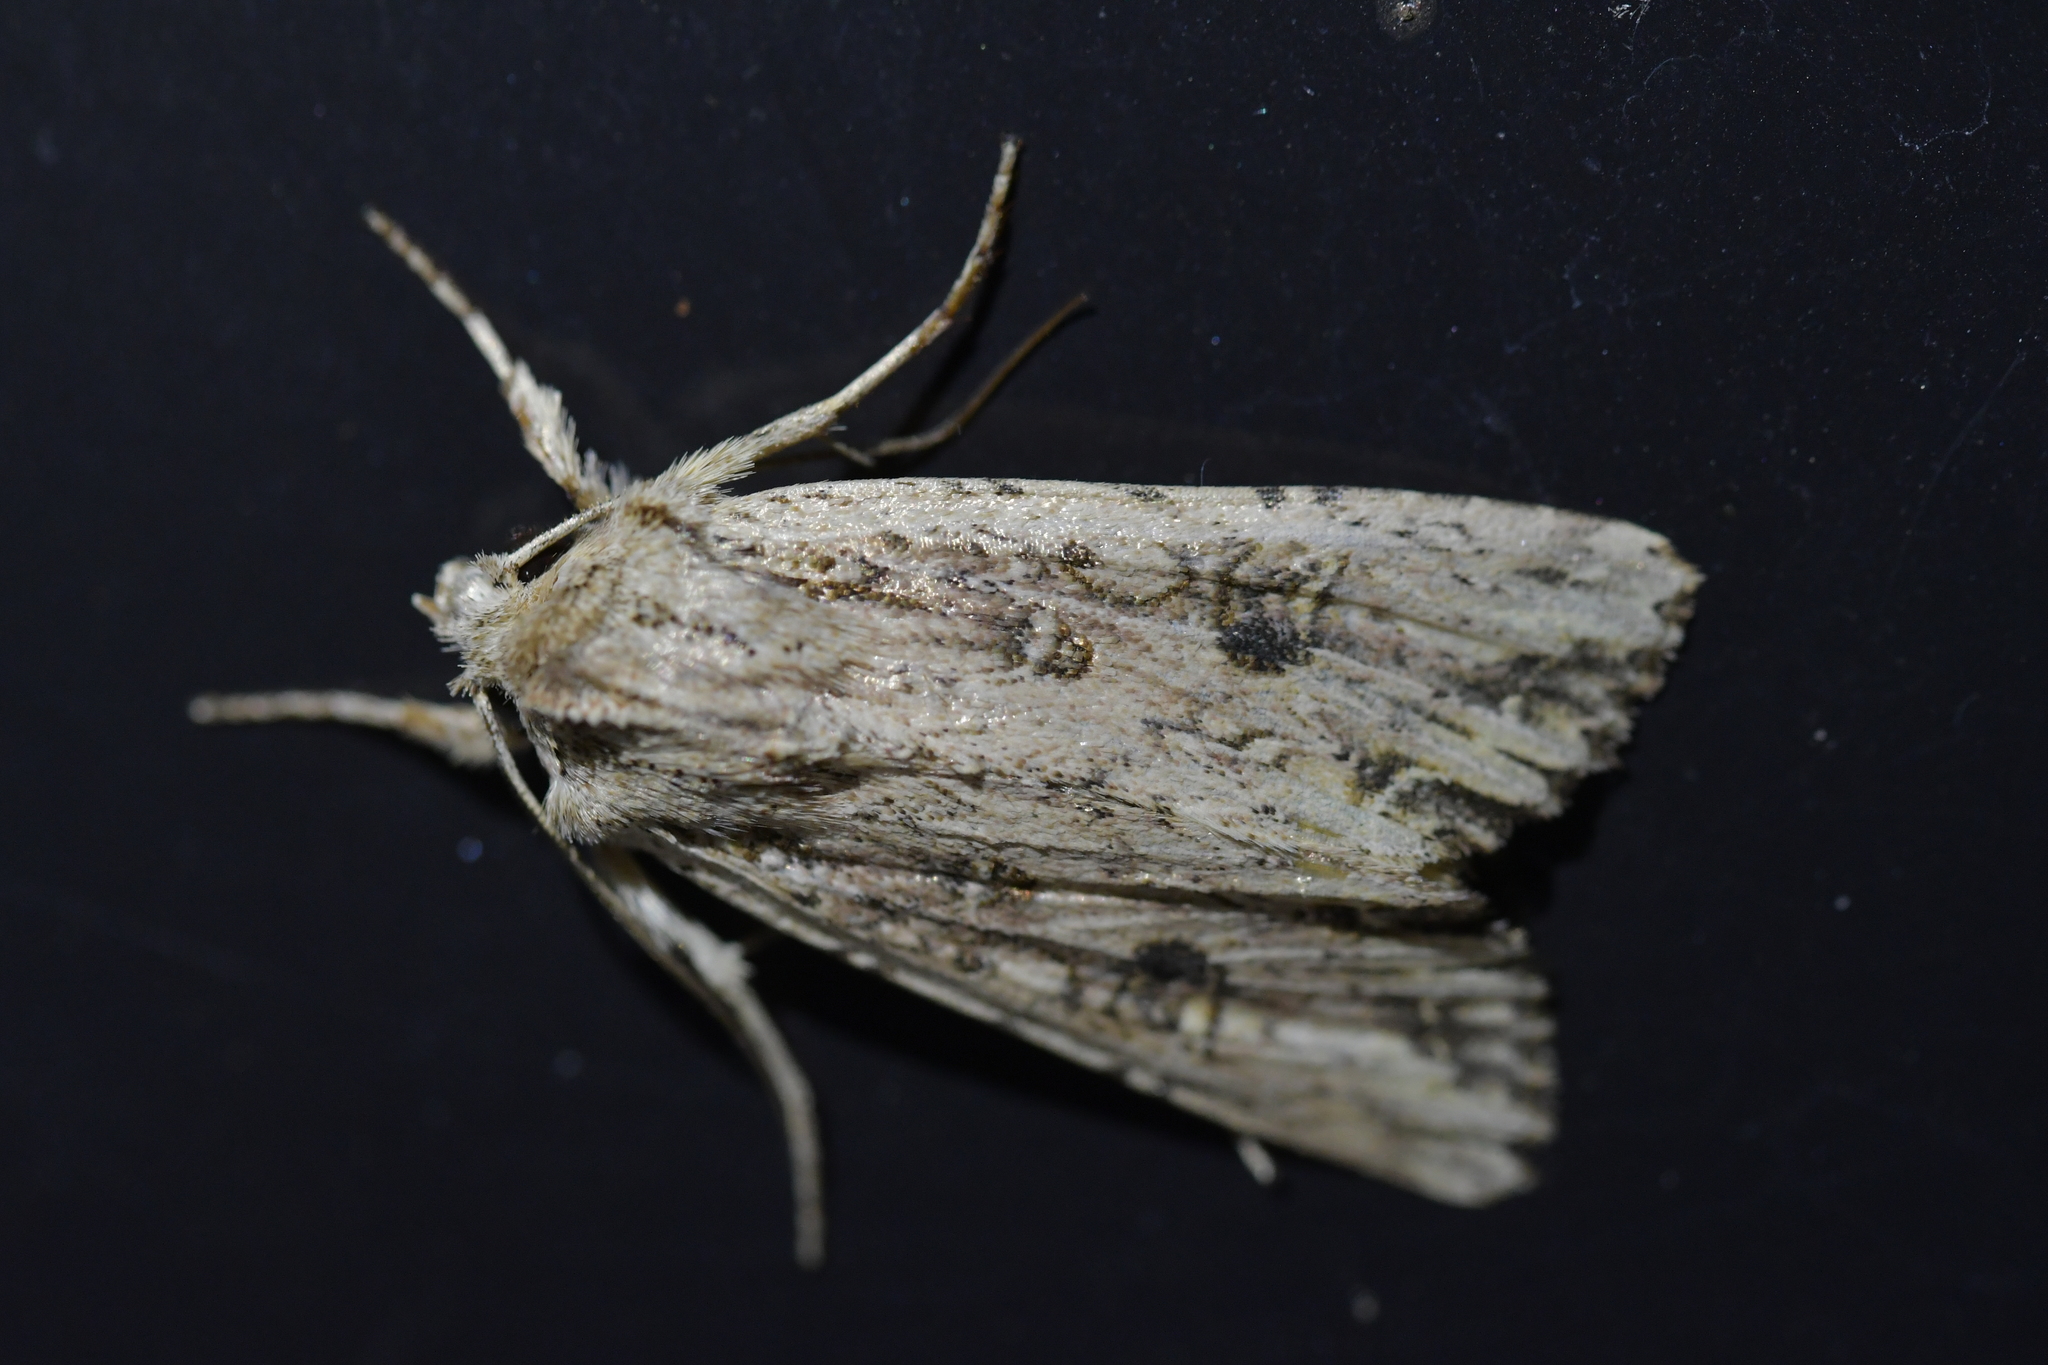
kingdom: Animalia
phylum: Arthropoda
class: Insecta
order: Lepidoptera
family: Noctuidae
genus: Ichneutica
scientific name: Ichneutica lignana
